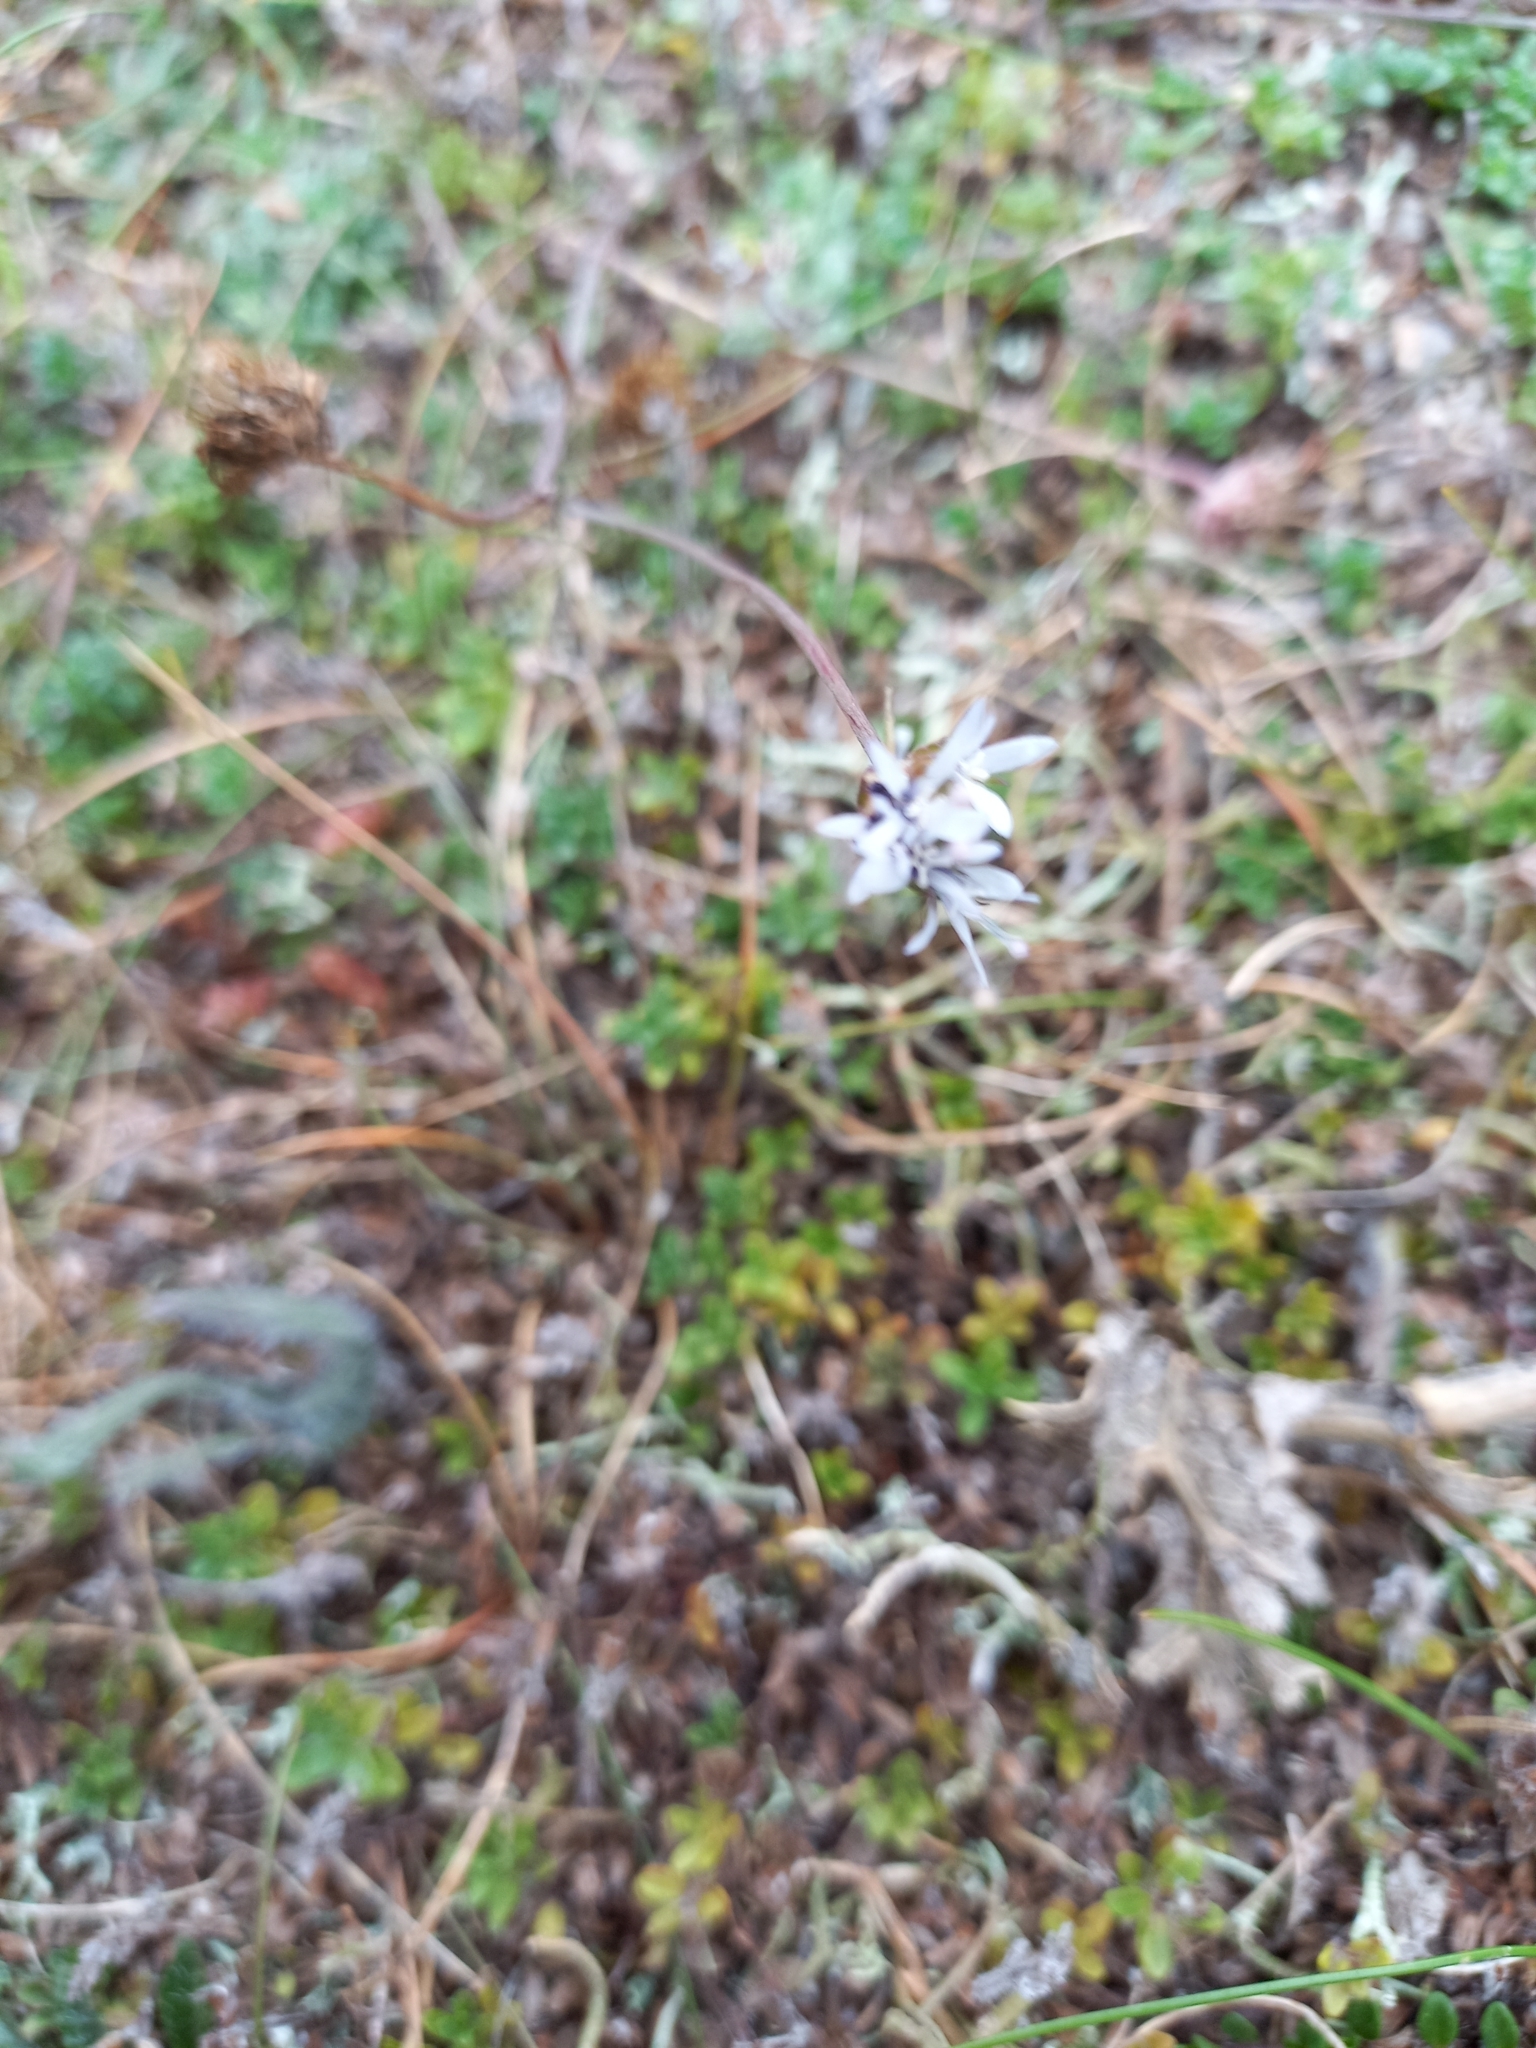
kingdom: Plantae
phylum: Tracheophyta
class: Magnoliopsida
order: Asterales
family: Campanulaceae
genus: Jasione
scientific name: Jasione montana
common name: Sheep's-bit
